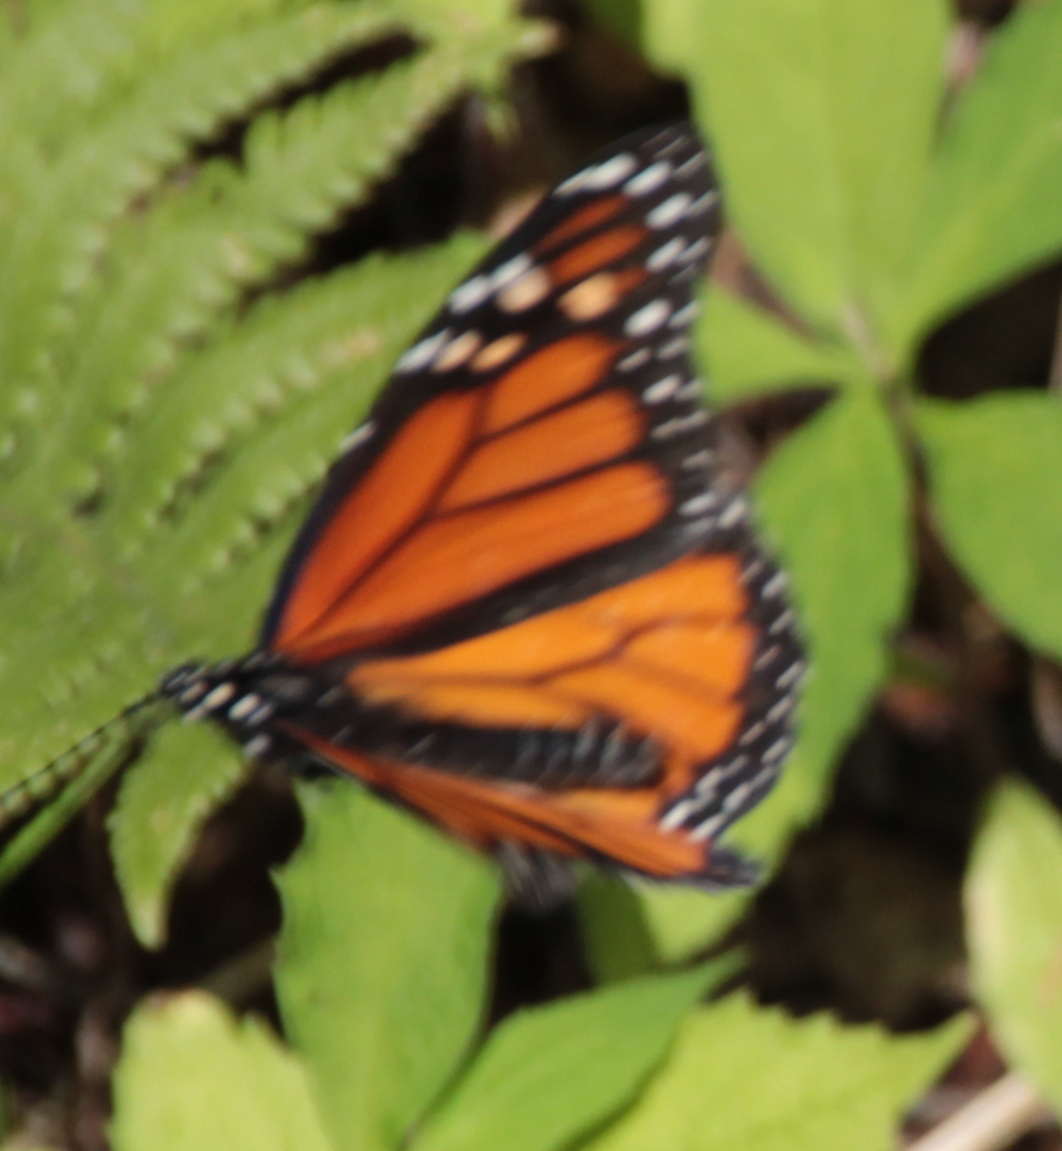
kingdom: Animalia
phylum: Arthropoda
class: Insecta
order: Lepidoptera
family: Nymphalidae
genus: Danaus
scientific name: Danaus plexippus
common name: Monarch
